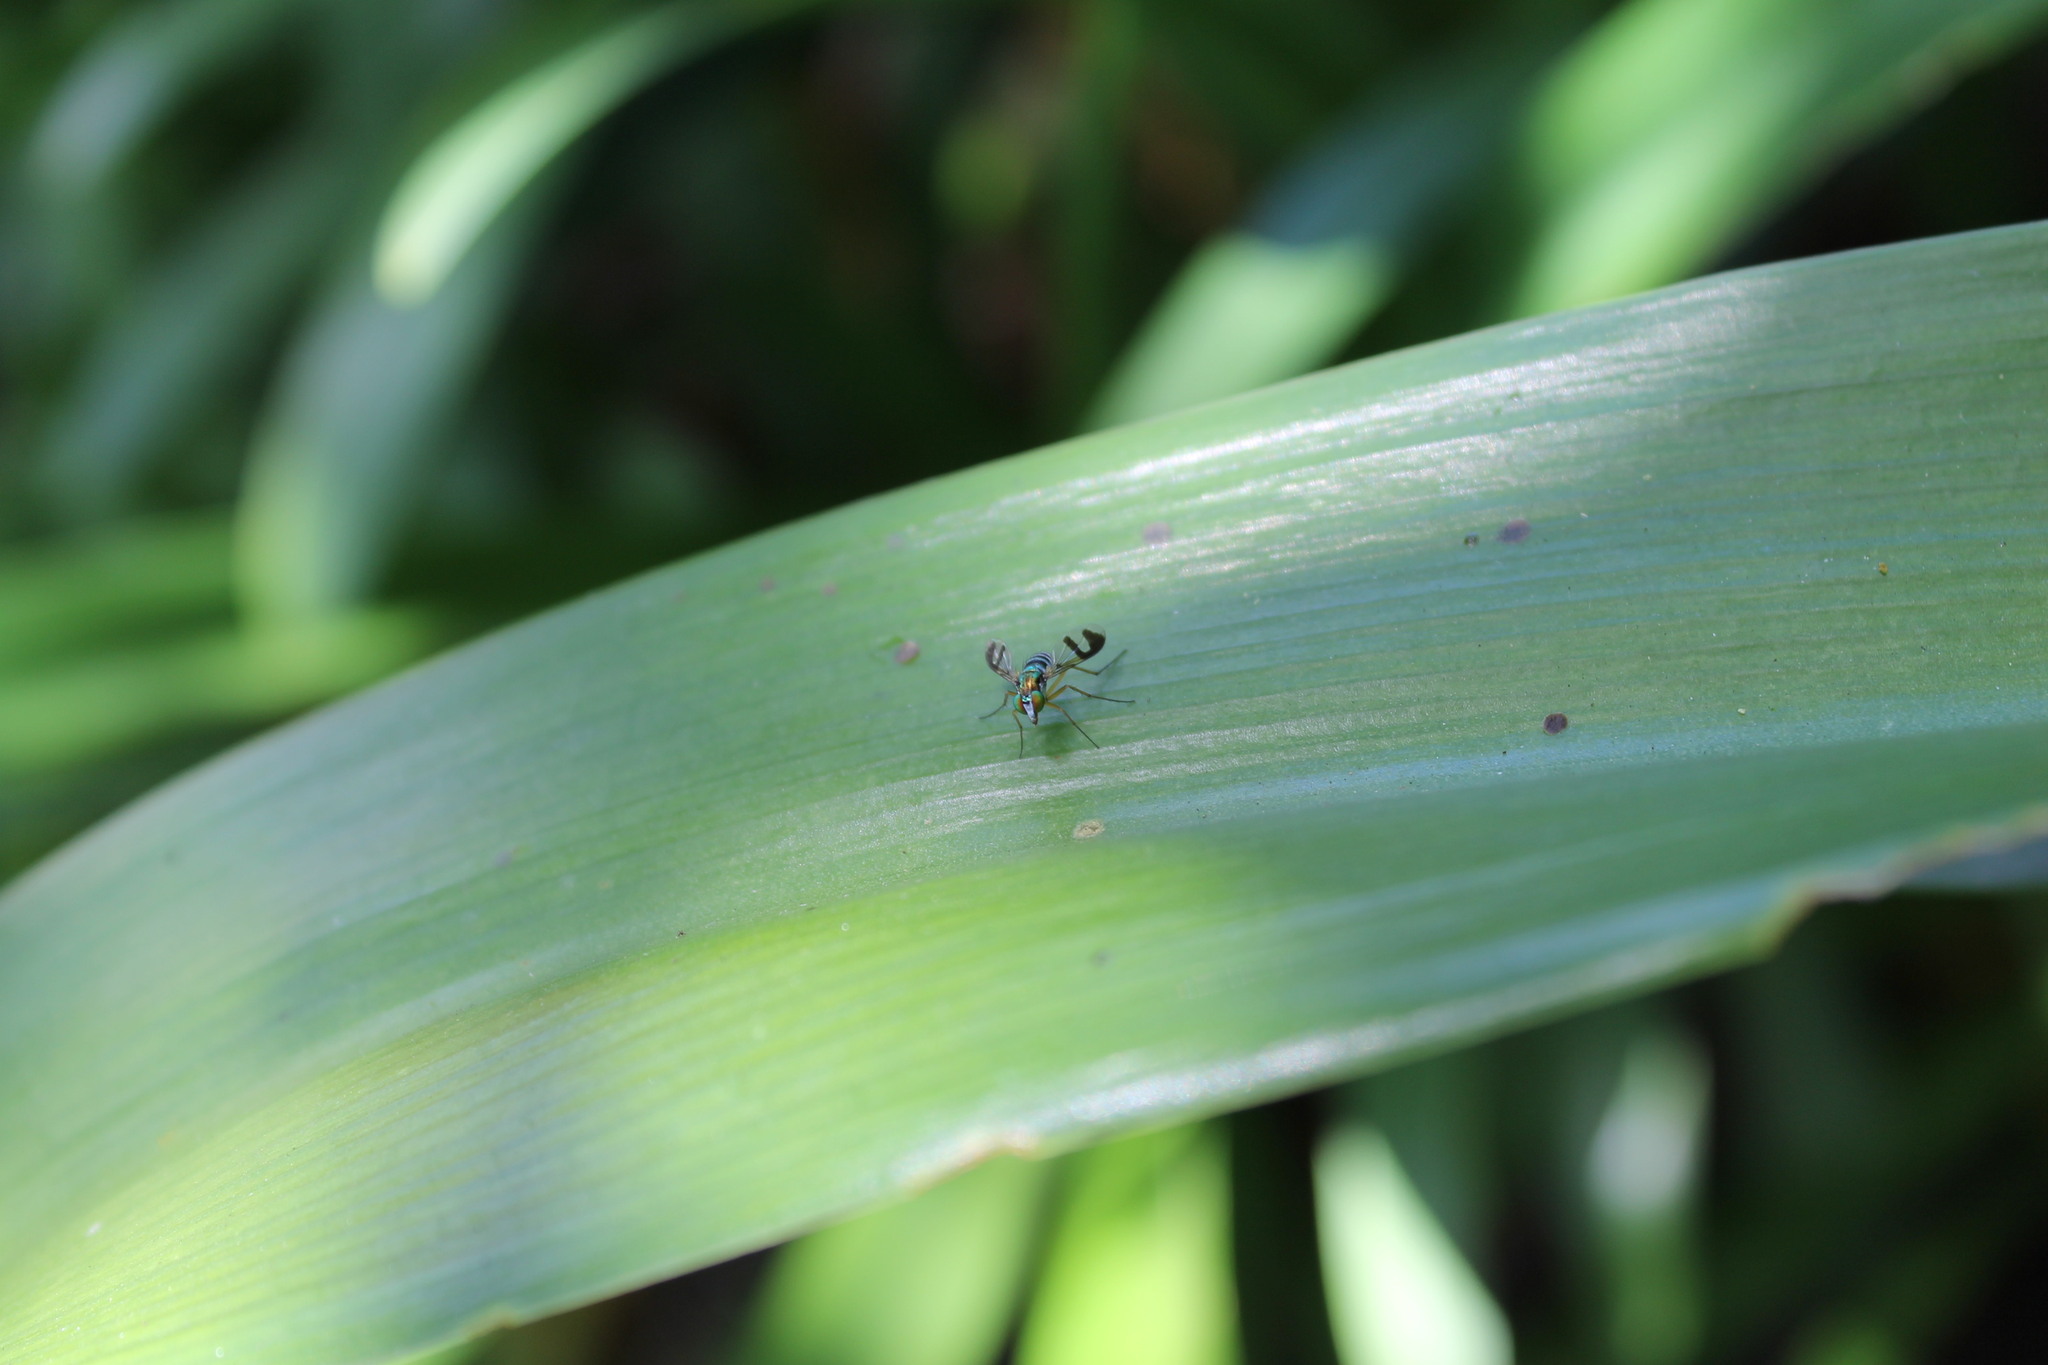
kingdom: Animalia
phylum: Arthropoda
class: Insecta
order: Diptera
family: Dolichopodidae
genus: Austrosciapus
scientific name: Austrosciapus connexus
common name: Green long-legged fly
